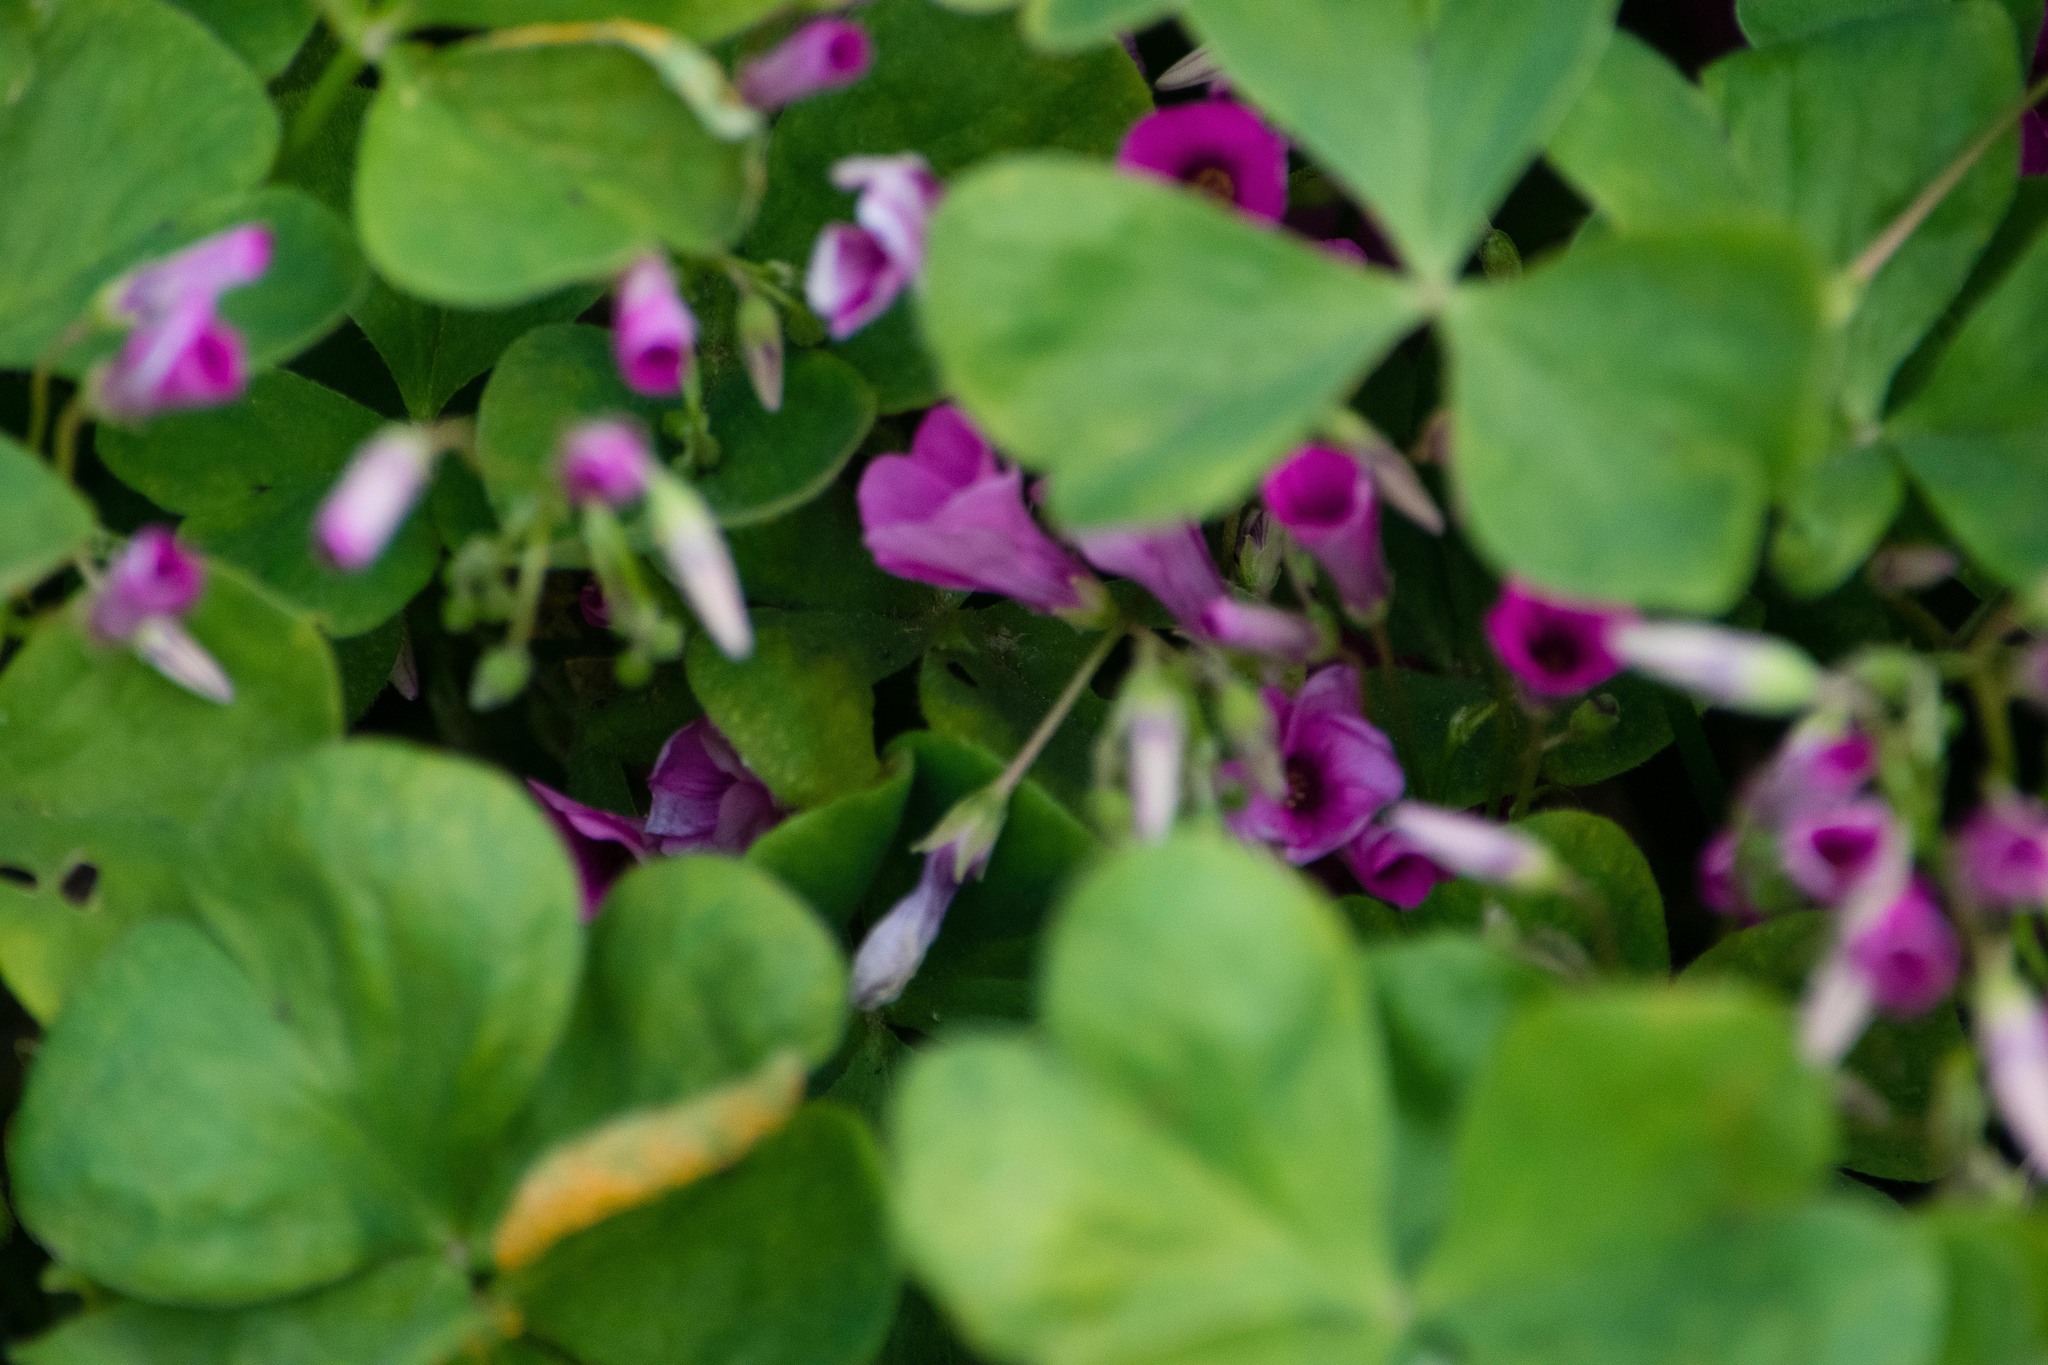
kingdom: Plantae
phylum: Tracheophyta
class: Magnoliopsida
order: Oxalidales
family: Oxalidaceae
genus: Oxalis
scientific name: Oxalis articulata
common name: Pink-sorrel
